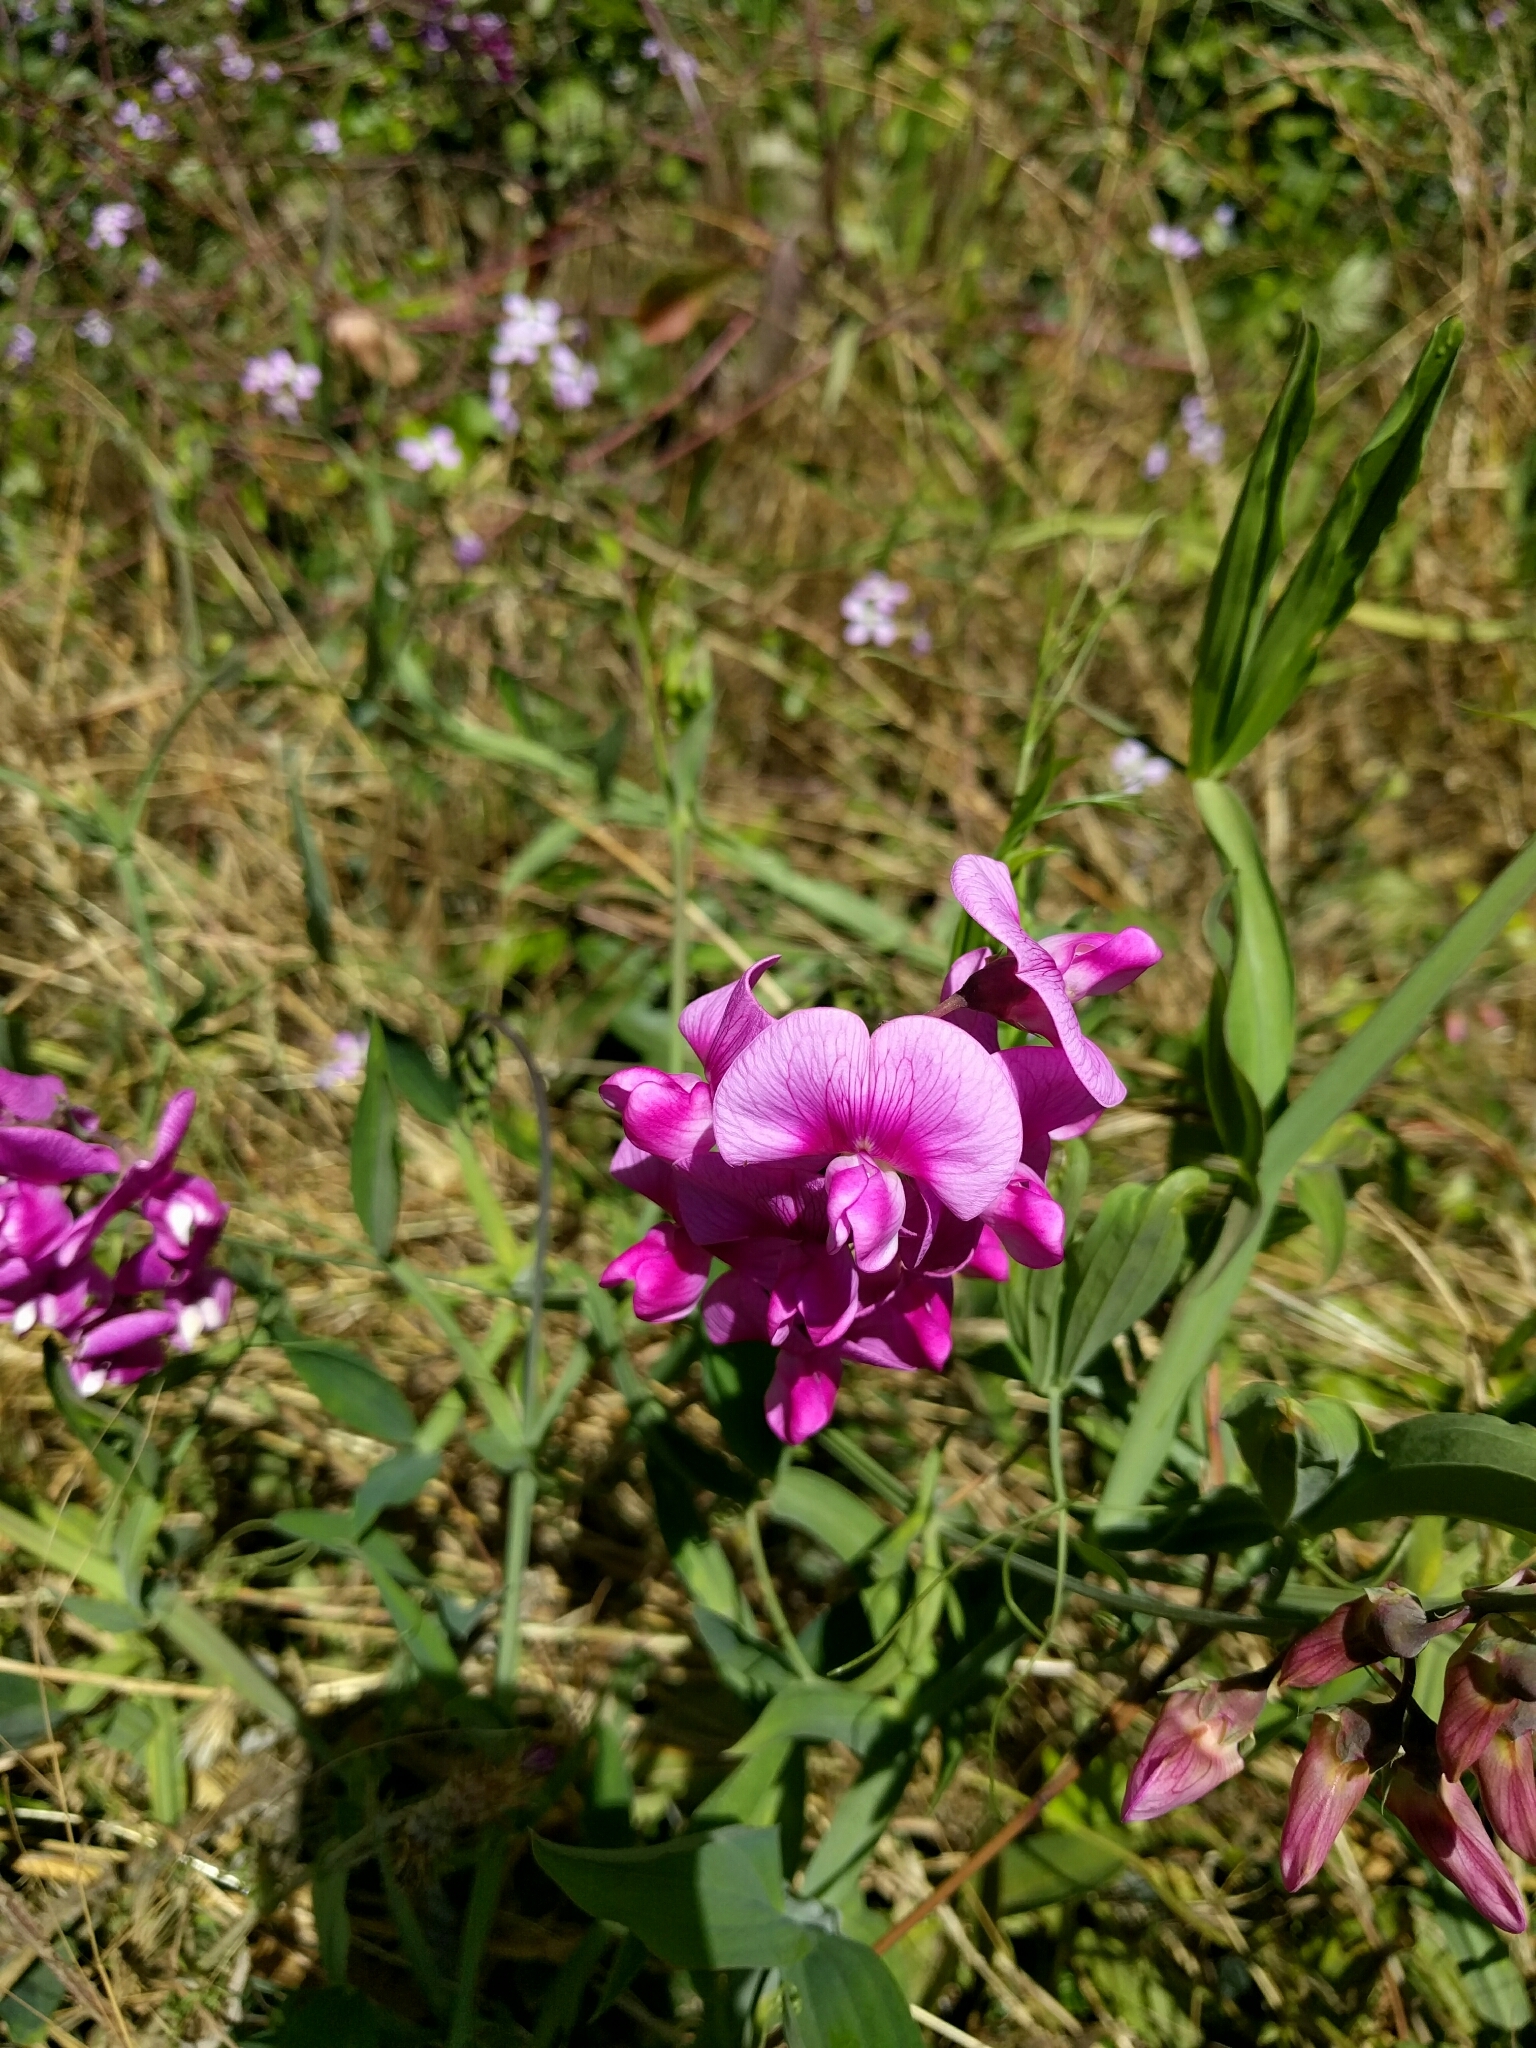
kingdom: Plantae
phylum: Tracheophyta
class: Magnoliopsida
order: Fabales
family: Fabaceae
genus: Lathyrus
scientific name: Lathyrus latifolius
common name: Perennial pea
